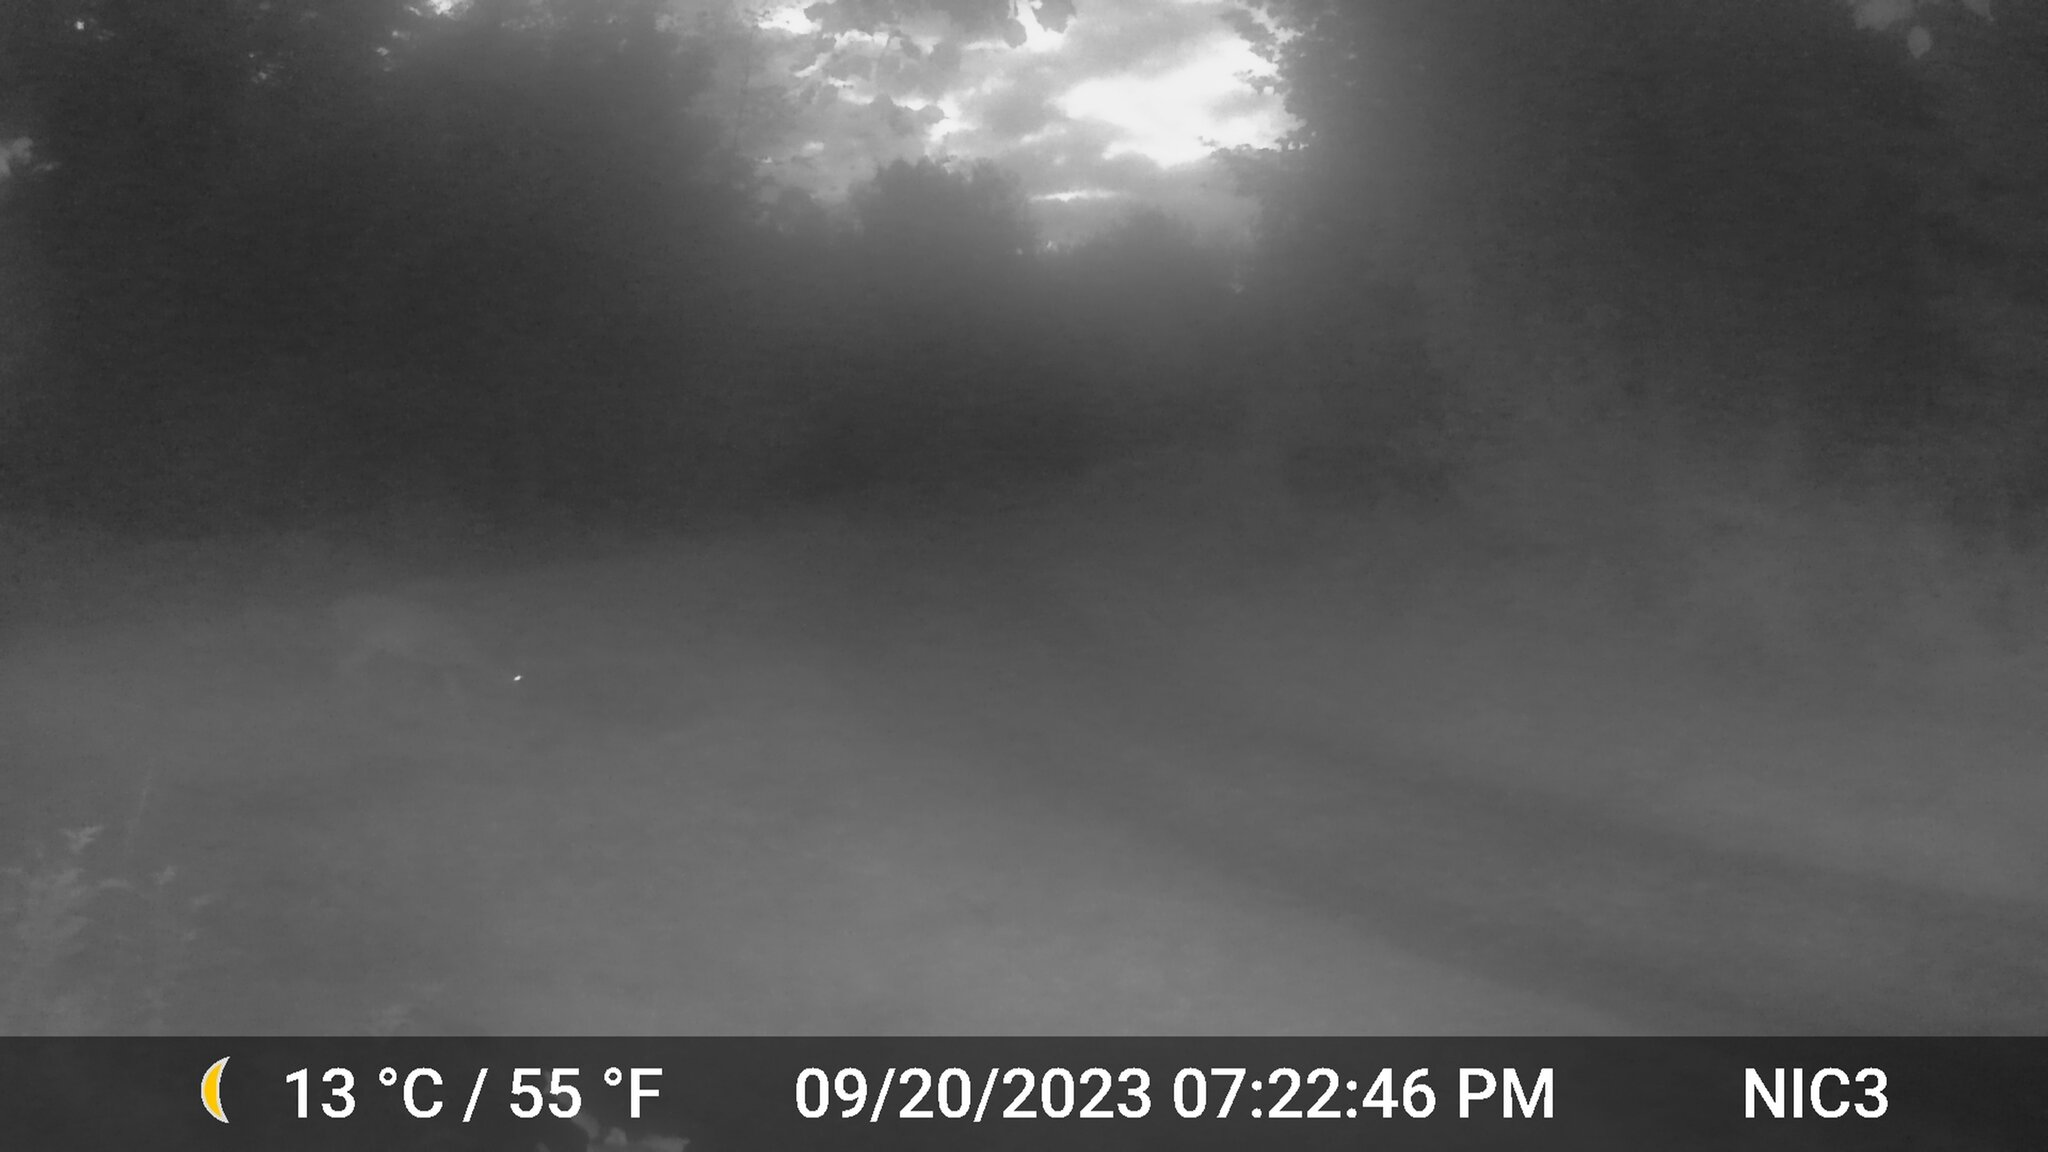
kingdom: Animalia
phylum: Chordata
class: Mammalia
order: Artiodactyla
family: Cervidae
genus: Odocoileus
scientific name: Odocoileus virginianus
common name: White-tailed deer
